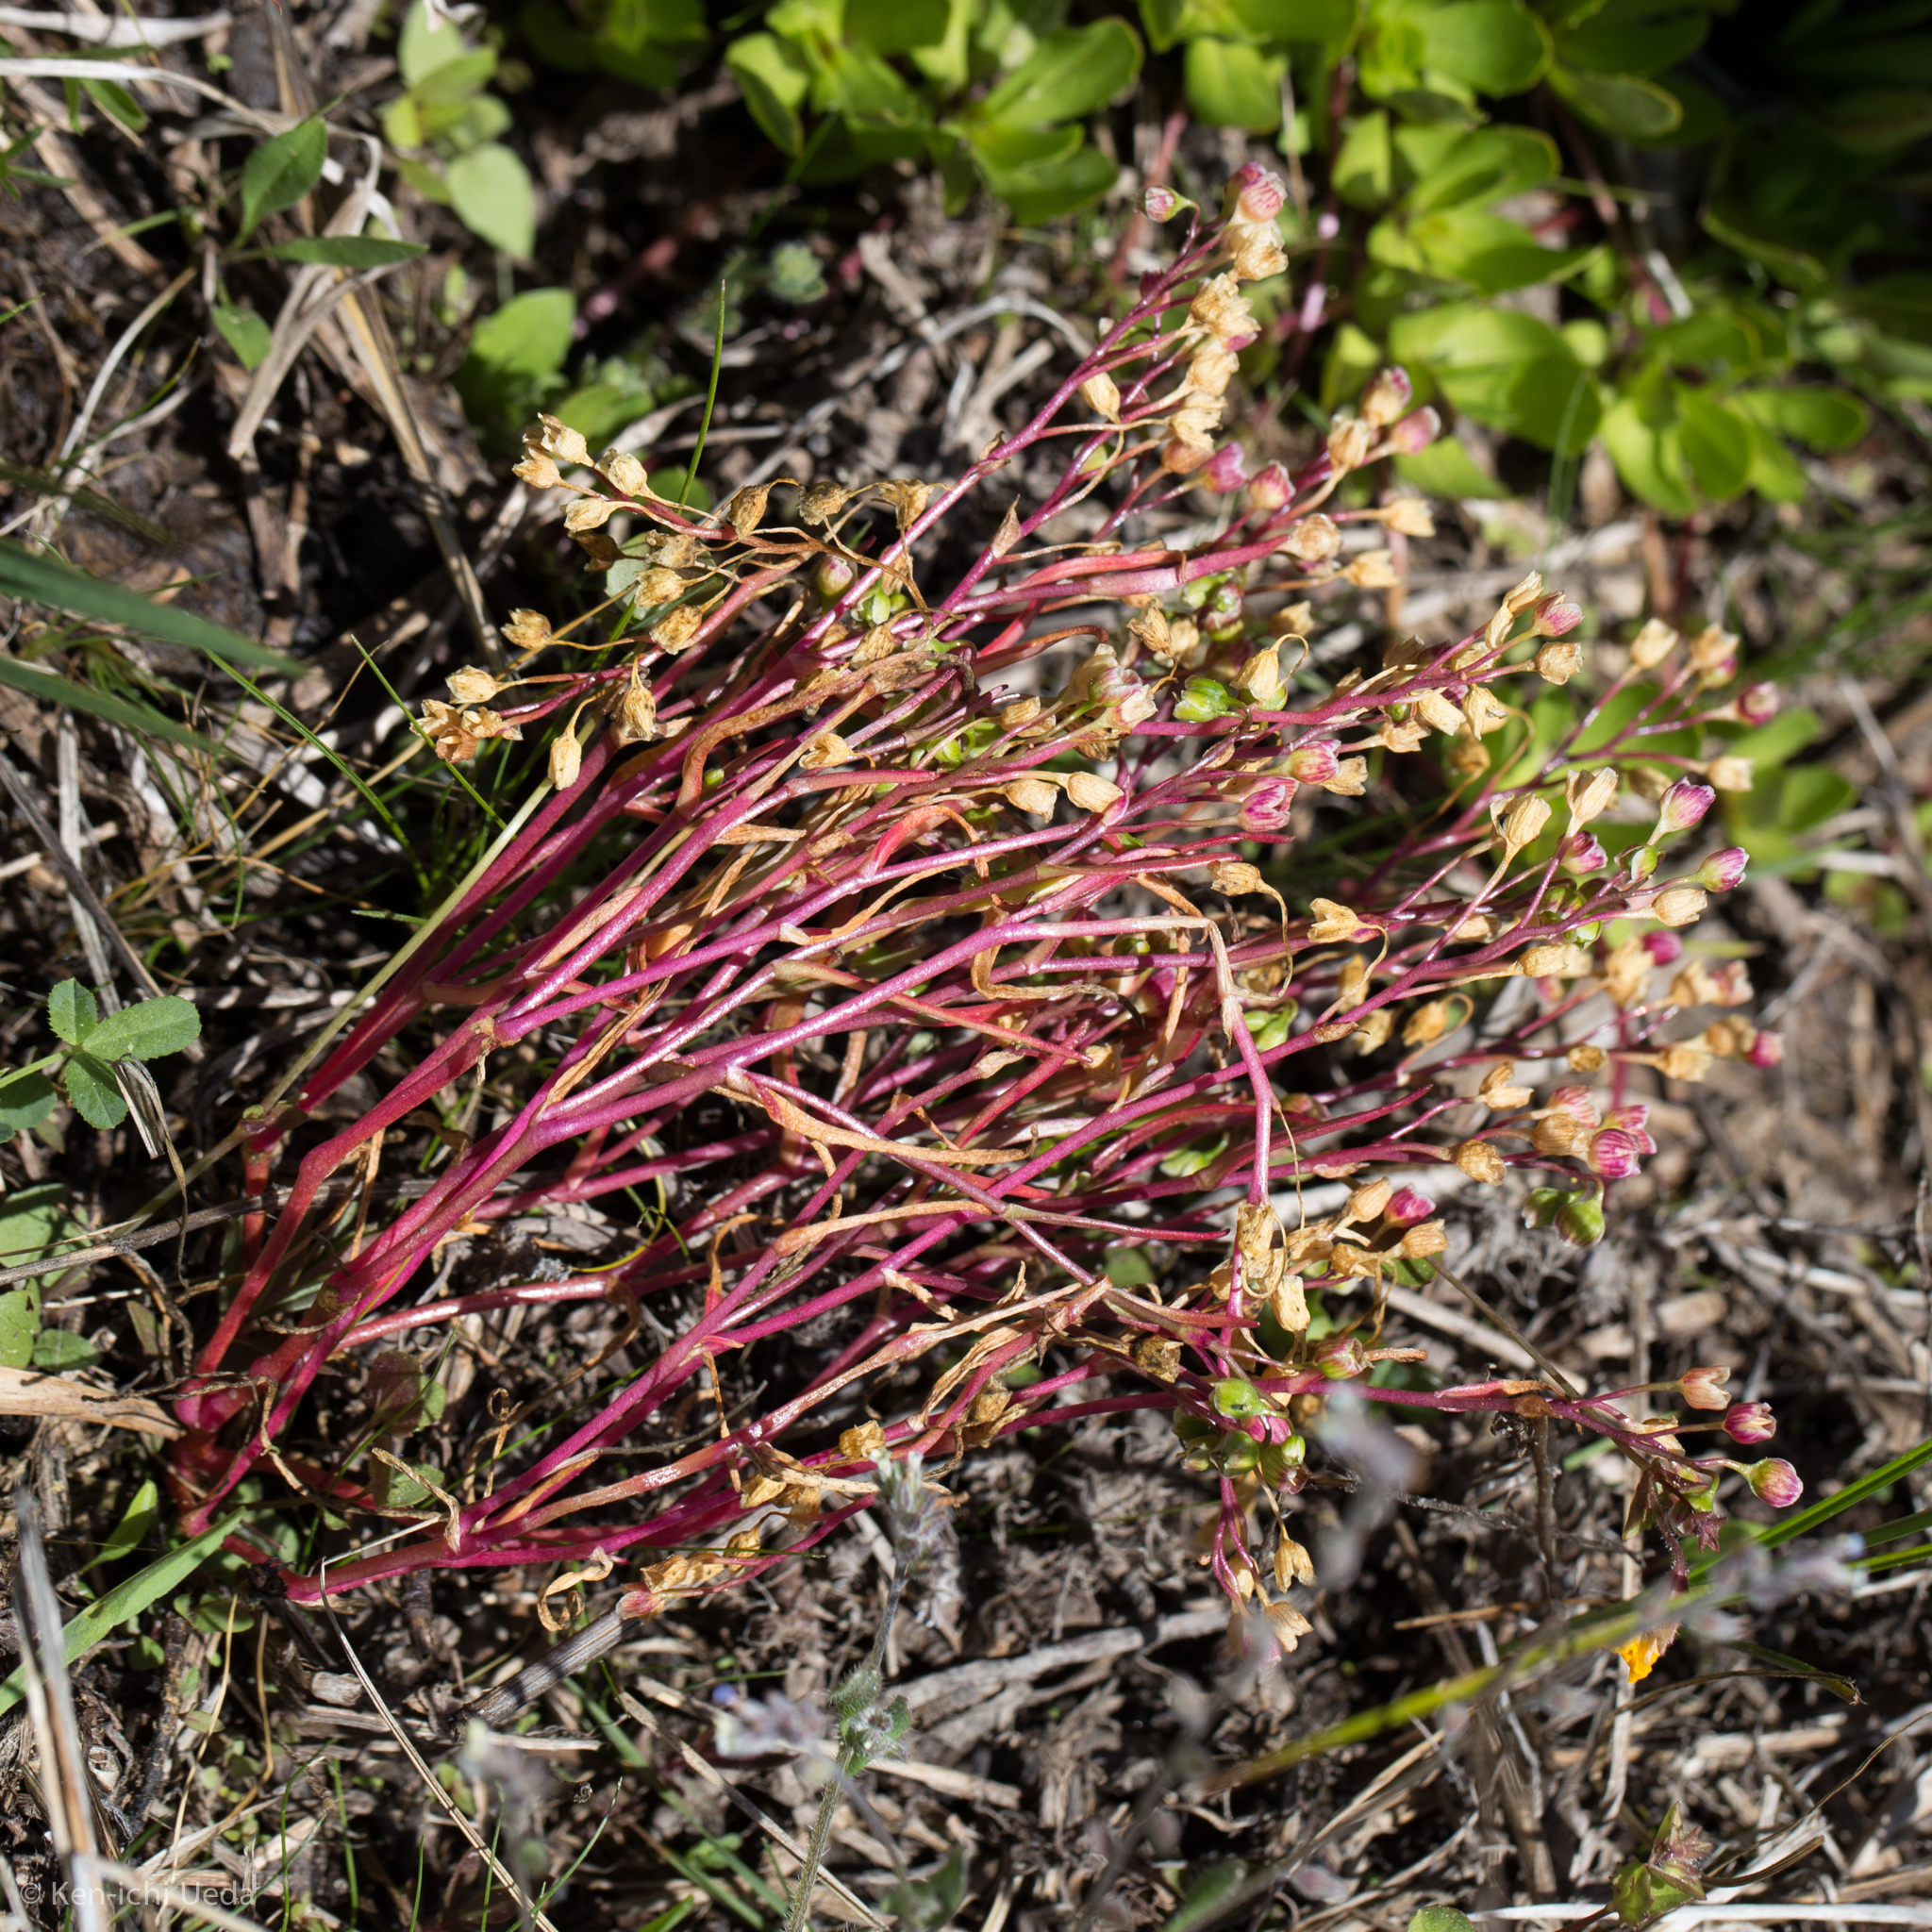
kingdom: Plantae
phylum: Tracheophyta
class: Magnoliopsida
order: Caryophyllales
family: Montiaceae
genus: Montia
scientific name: Montia linearis
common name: Narrow-leaf montia
